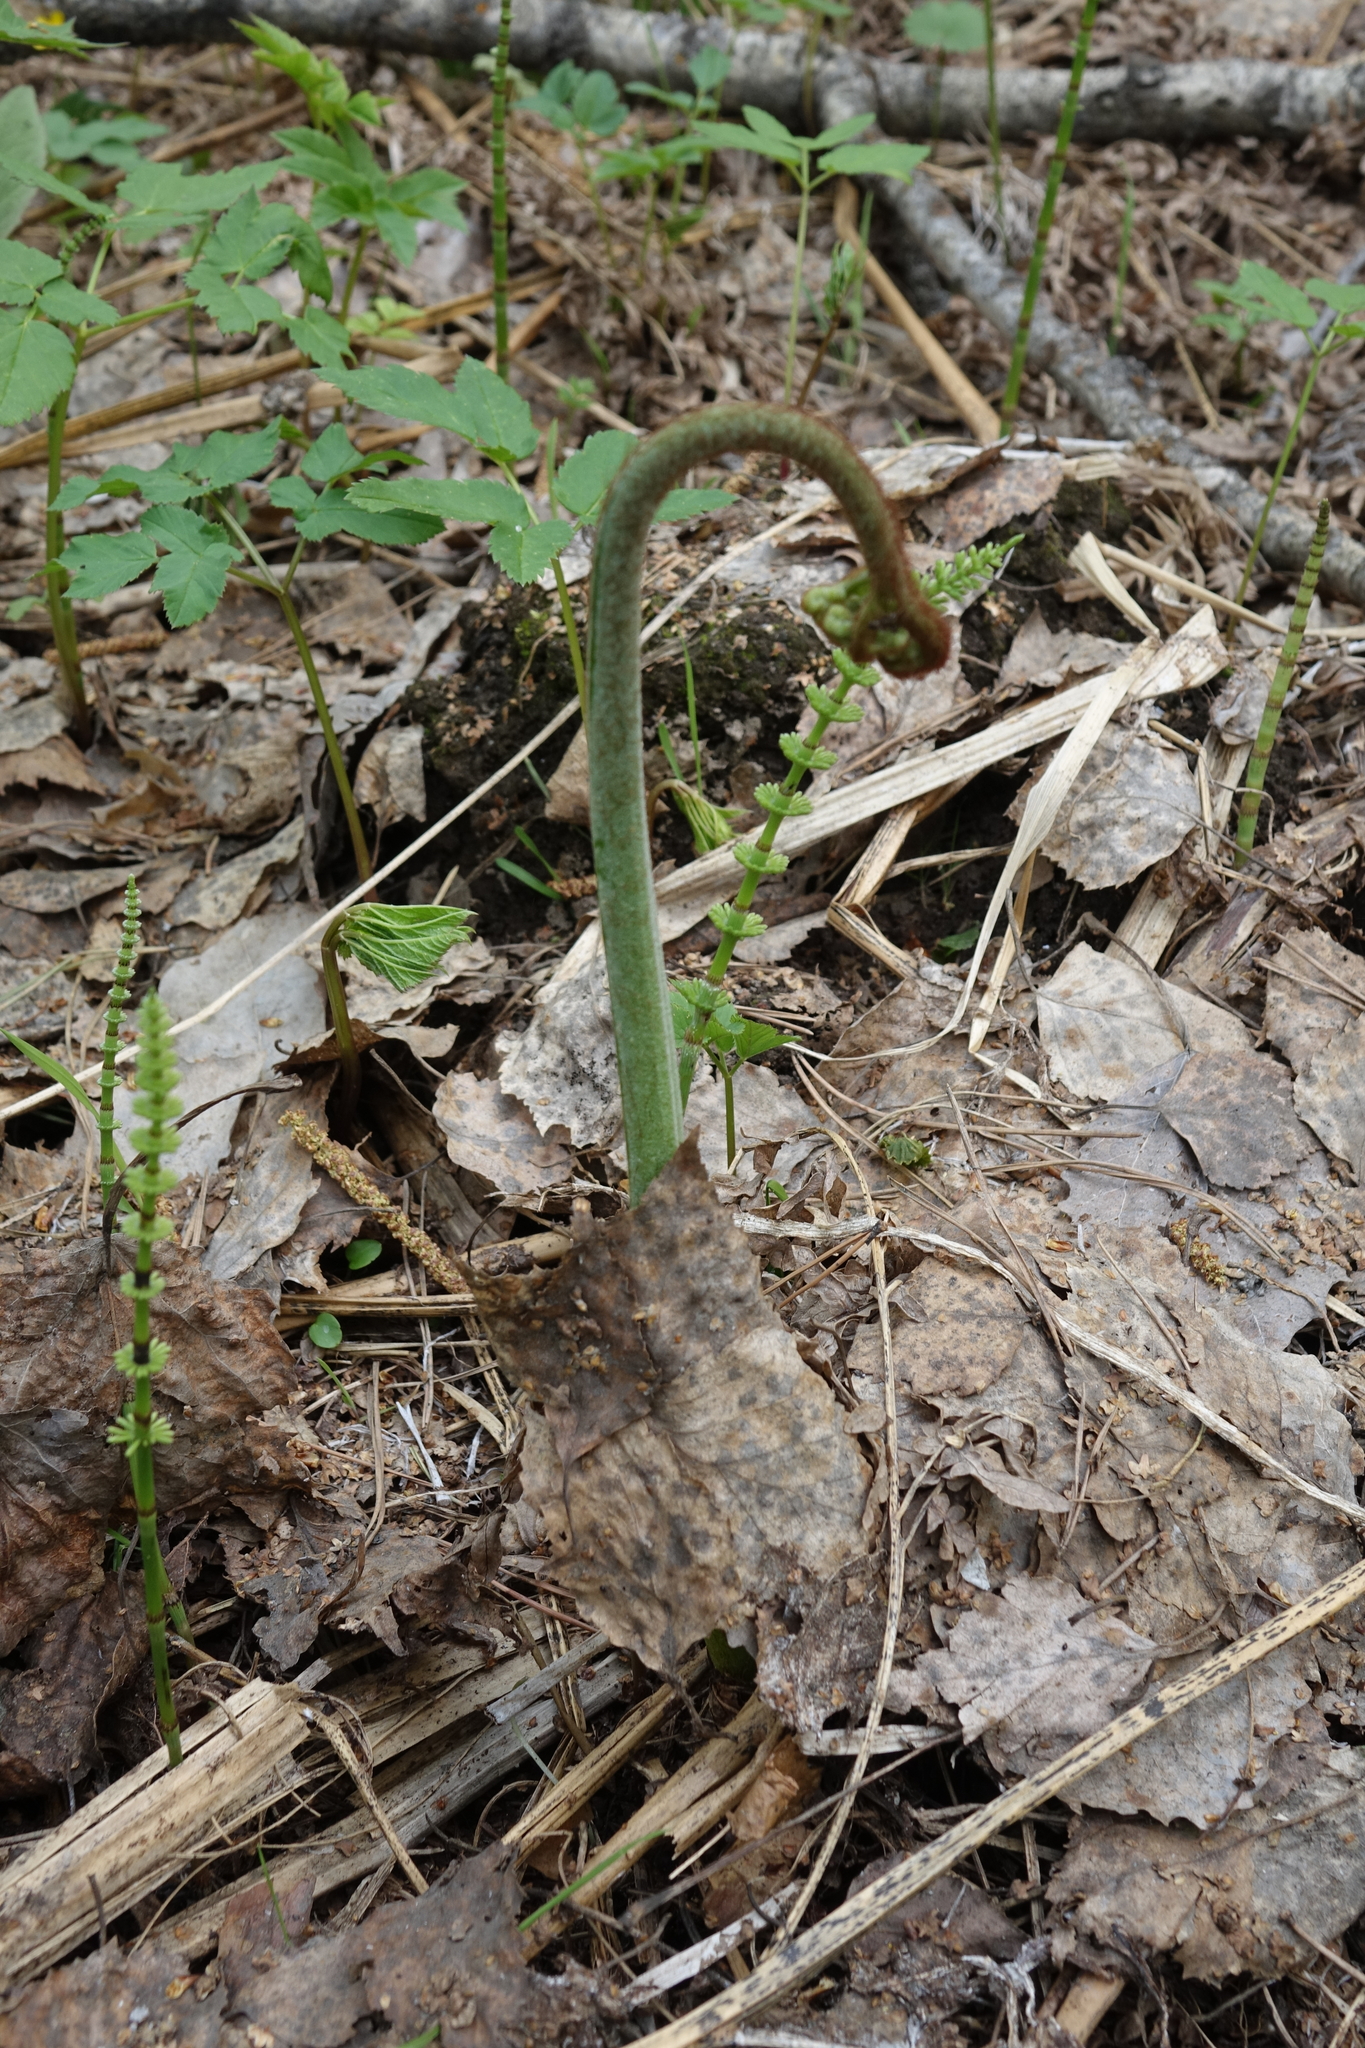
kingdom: Plantae
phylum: Tracheophyta
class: Polypodiopsida
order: Polypodiales
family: Dennstaedtiaceae
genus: Pteridium
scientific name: Pteridium aquilinum
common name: Bracken
